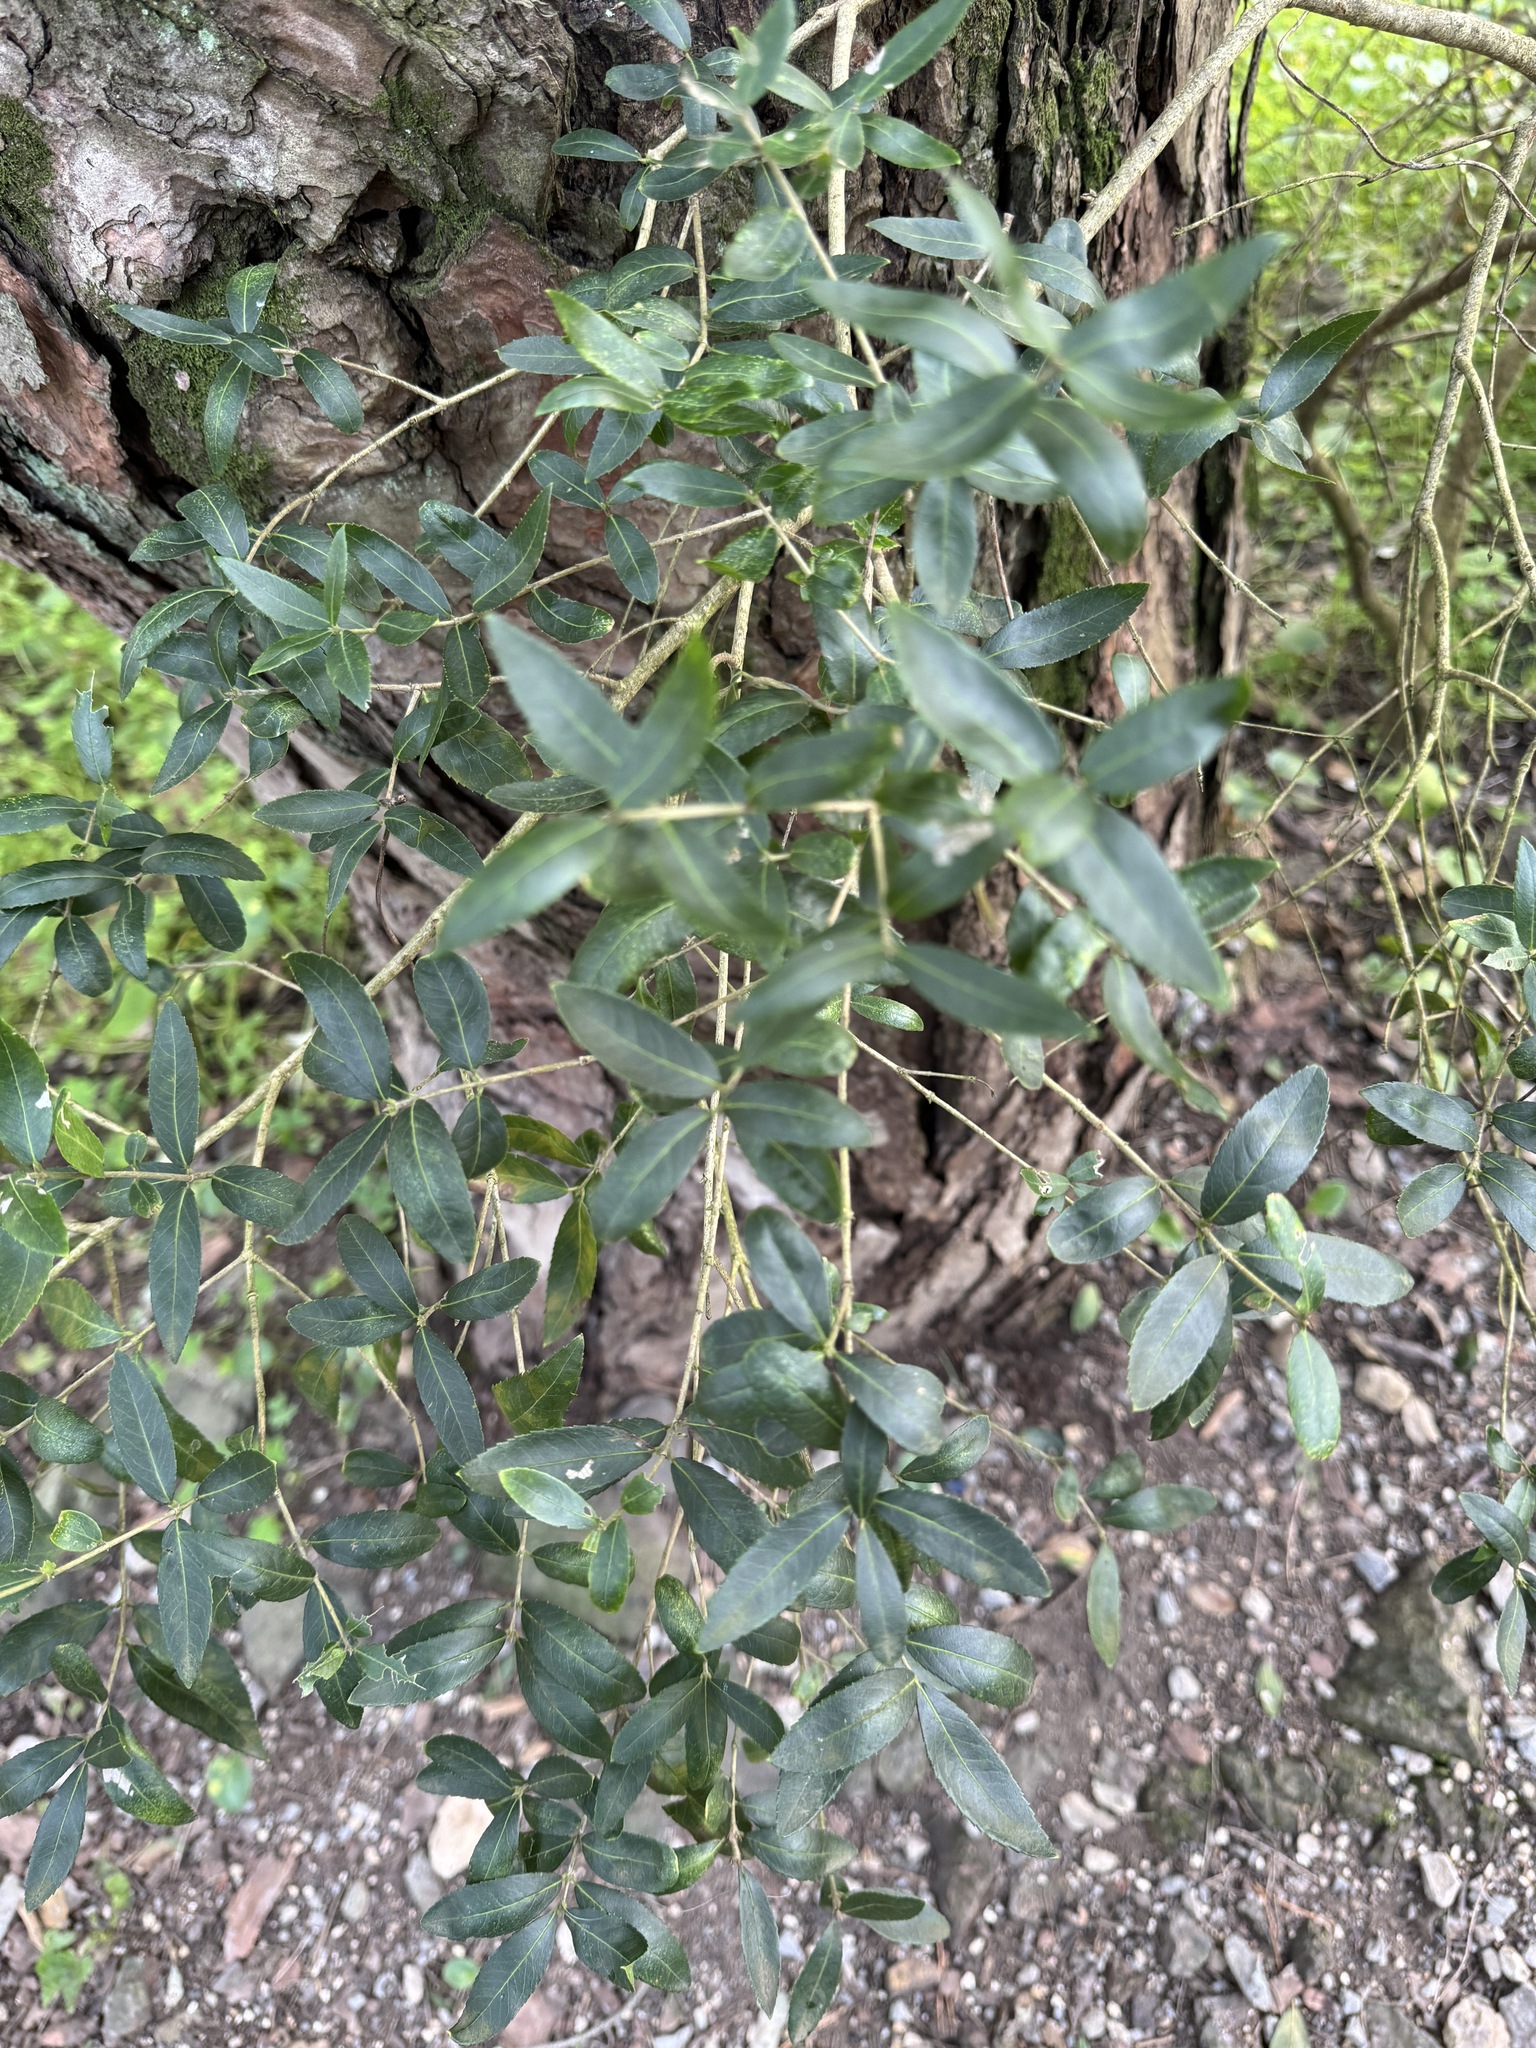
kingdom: Plantae
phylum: Tracheophyta
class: Magnoliopsida
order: Lamiales
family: Oleaceae
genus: Phillyrea
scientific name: Phillyrea latifolia
